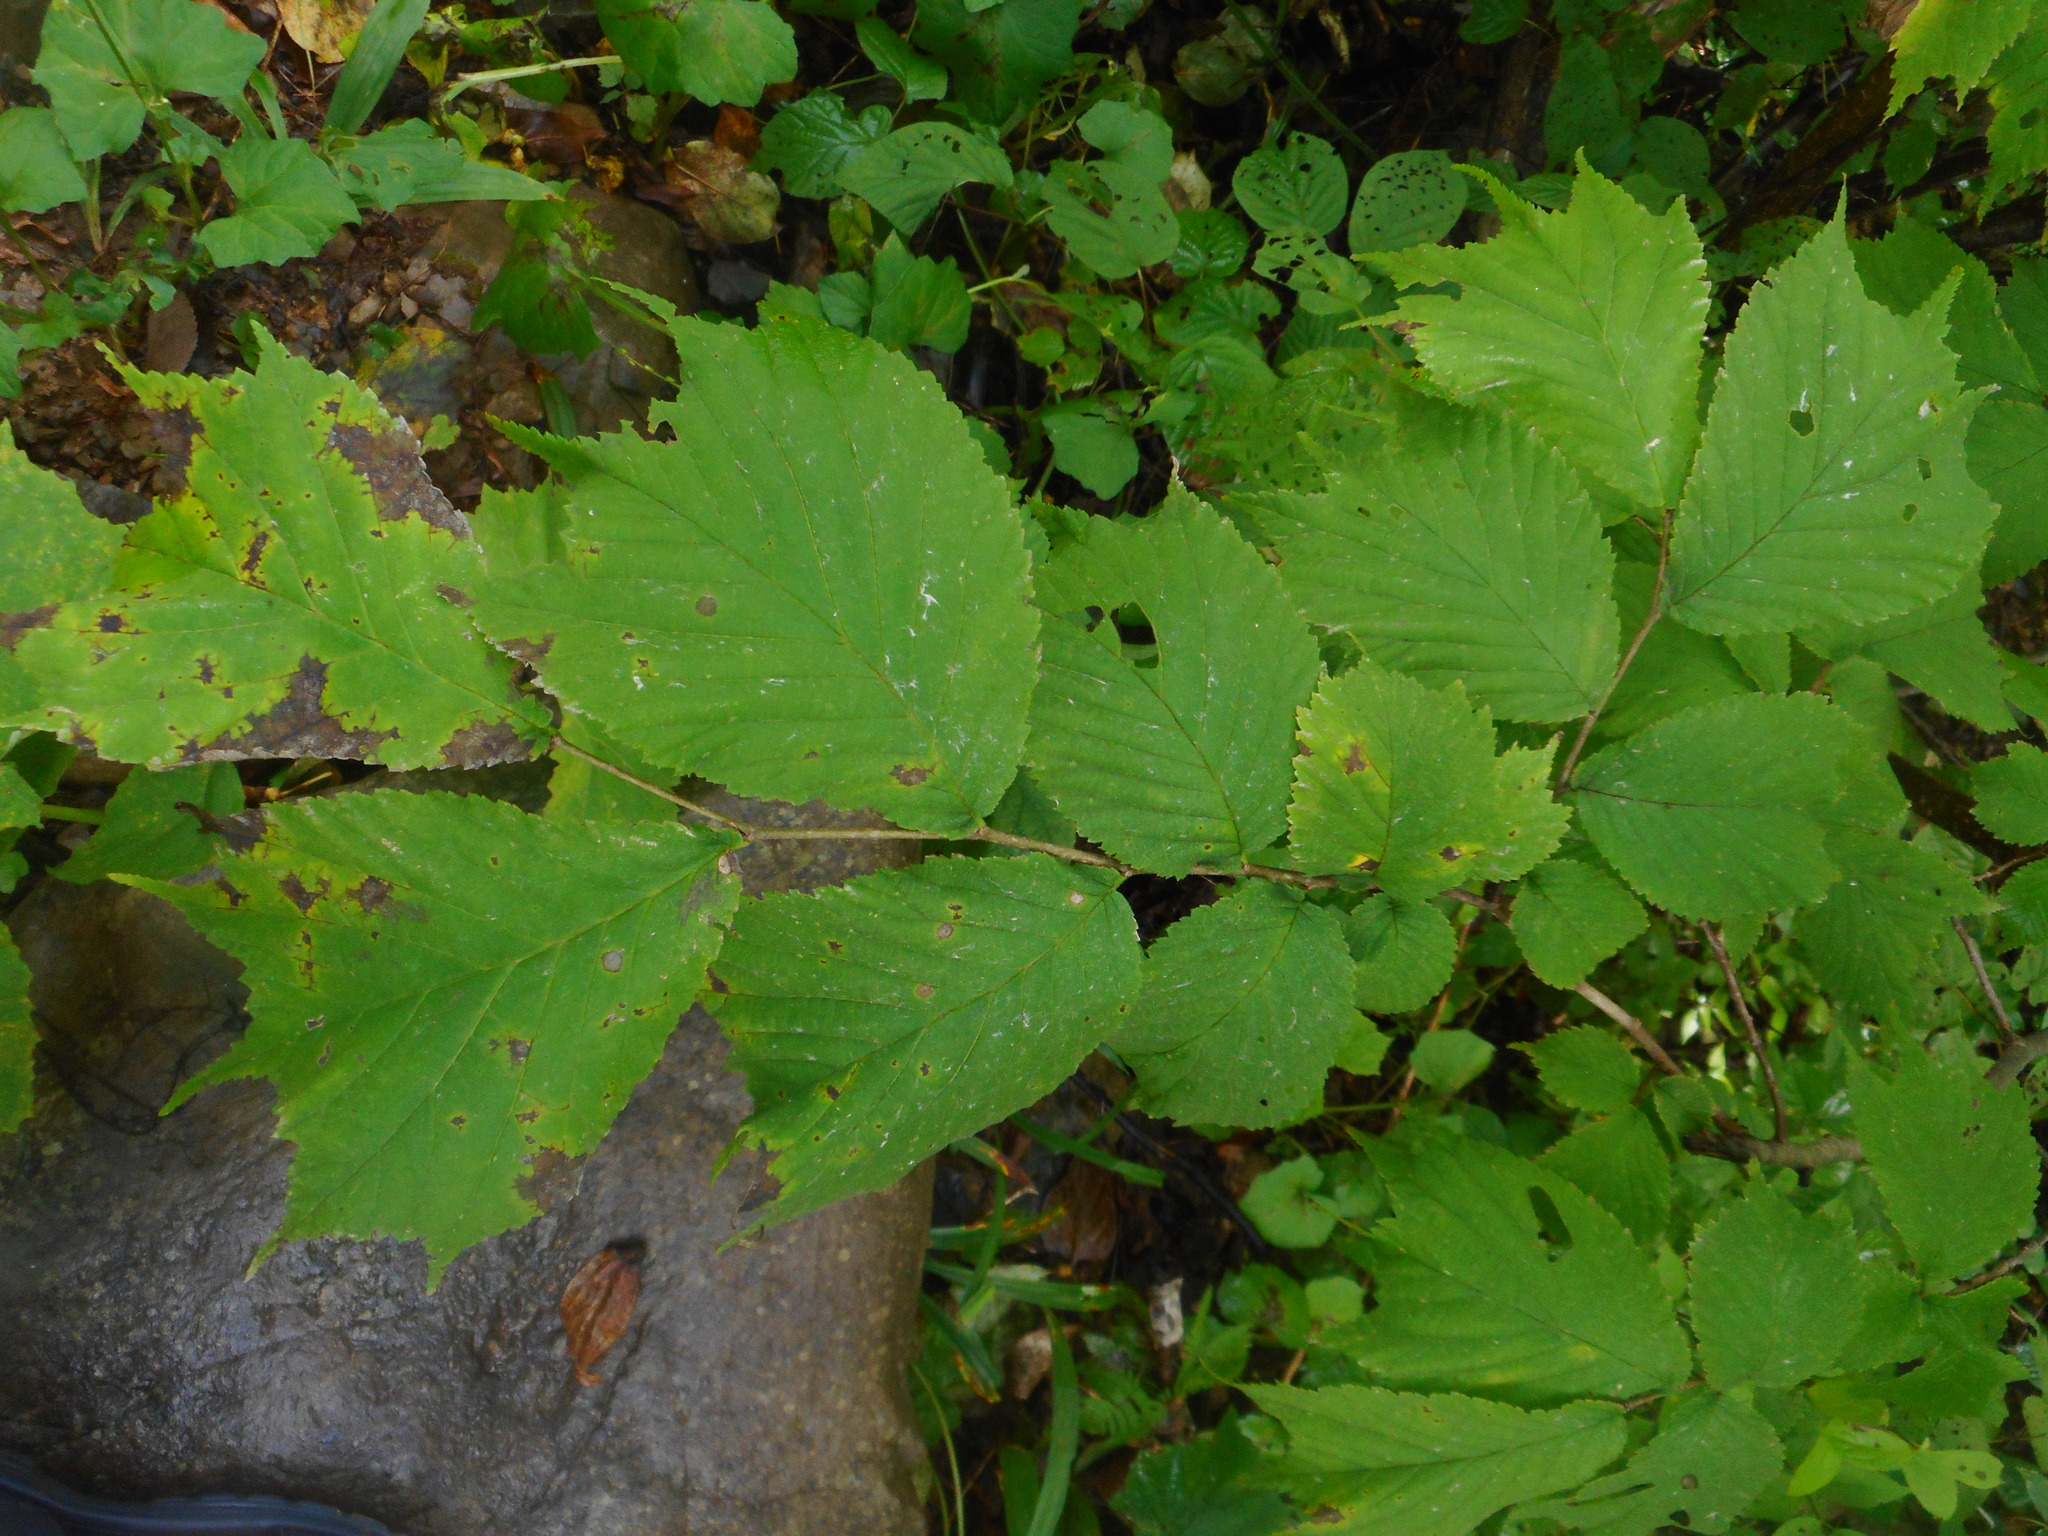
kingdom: Plantae
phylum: Tracheophyta
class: Magnoliopsida
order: Rosales
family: Ulmaceae
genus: Ulmus
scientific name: Ulmus laciniata
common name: Japanese elm
